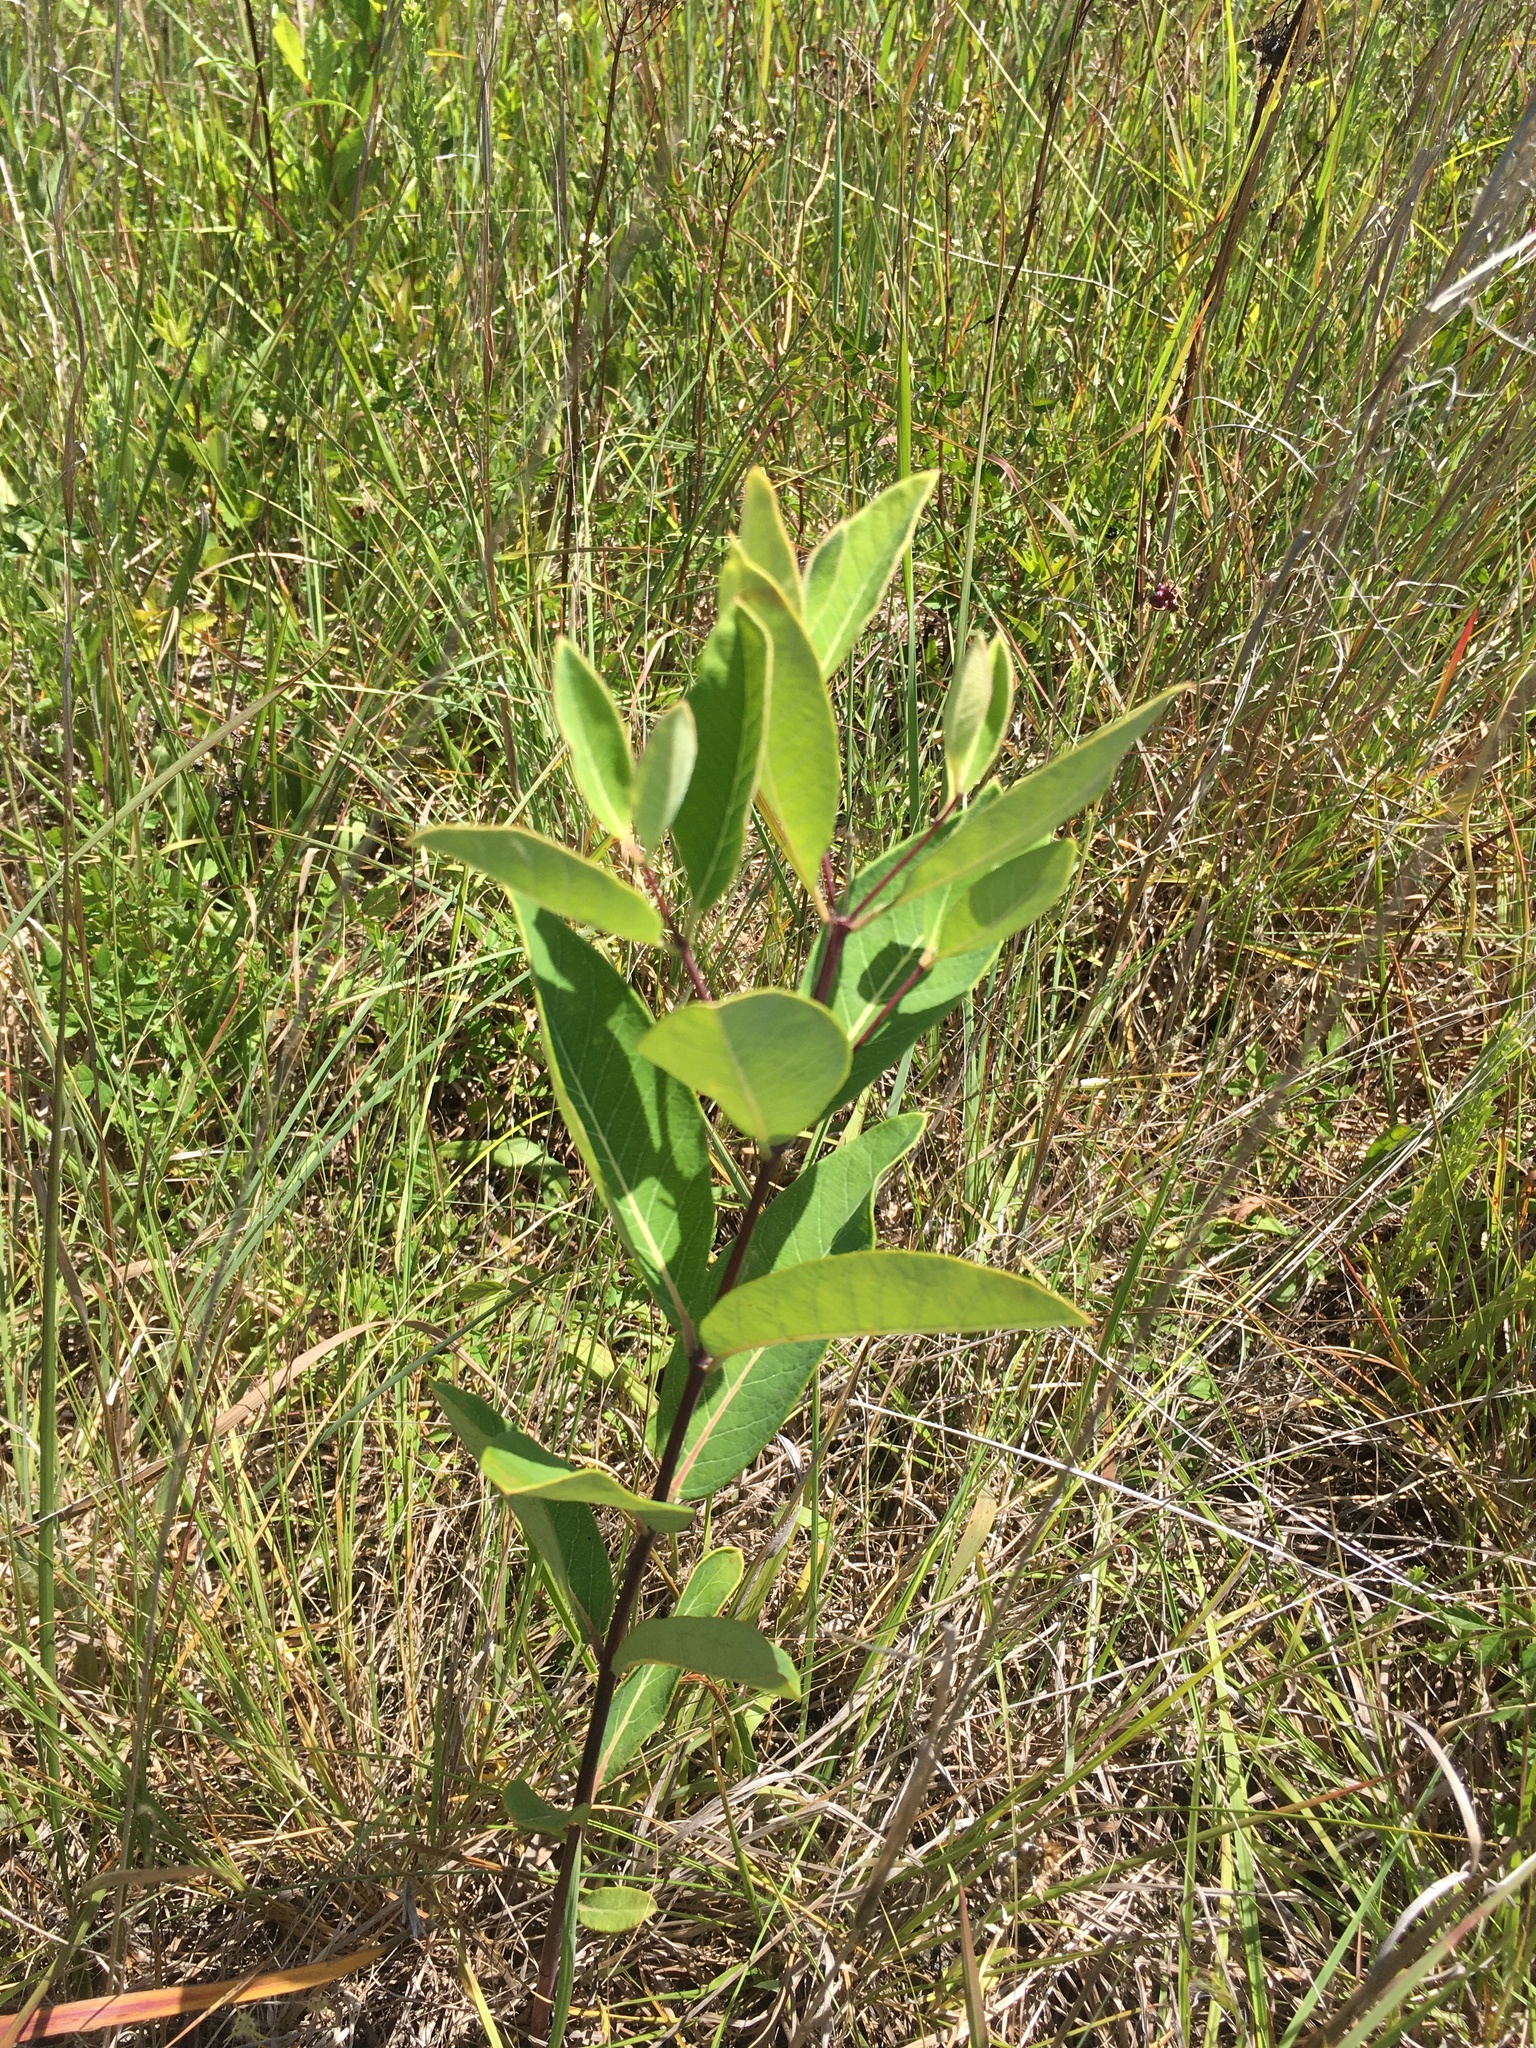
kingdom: Plantae
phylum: Tracheophyta
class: Magnoliopsida
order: Gentianales
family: Apocynaceae
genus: Apocynum
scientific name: Apocynum cannabinum
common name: Hemp dogbane
